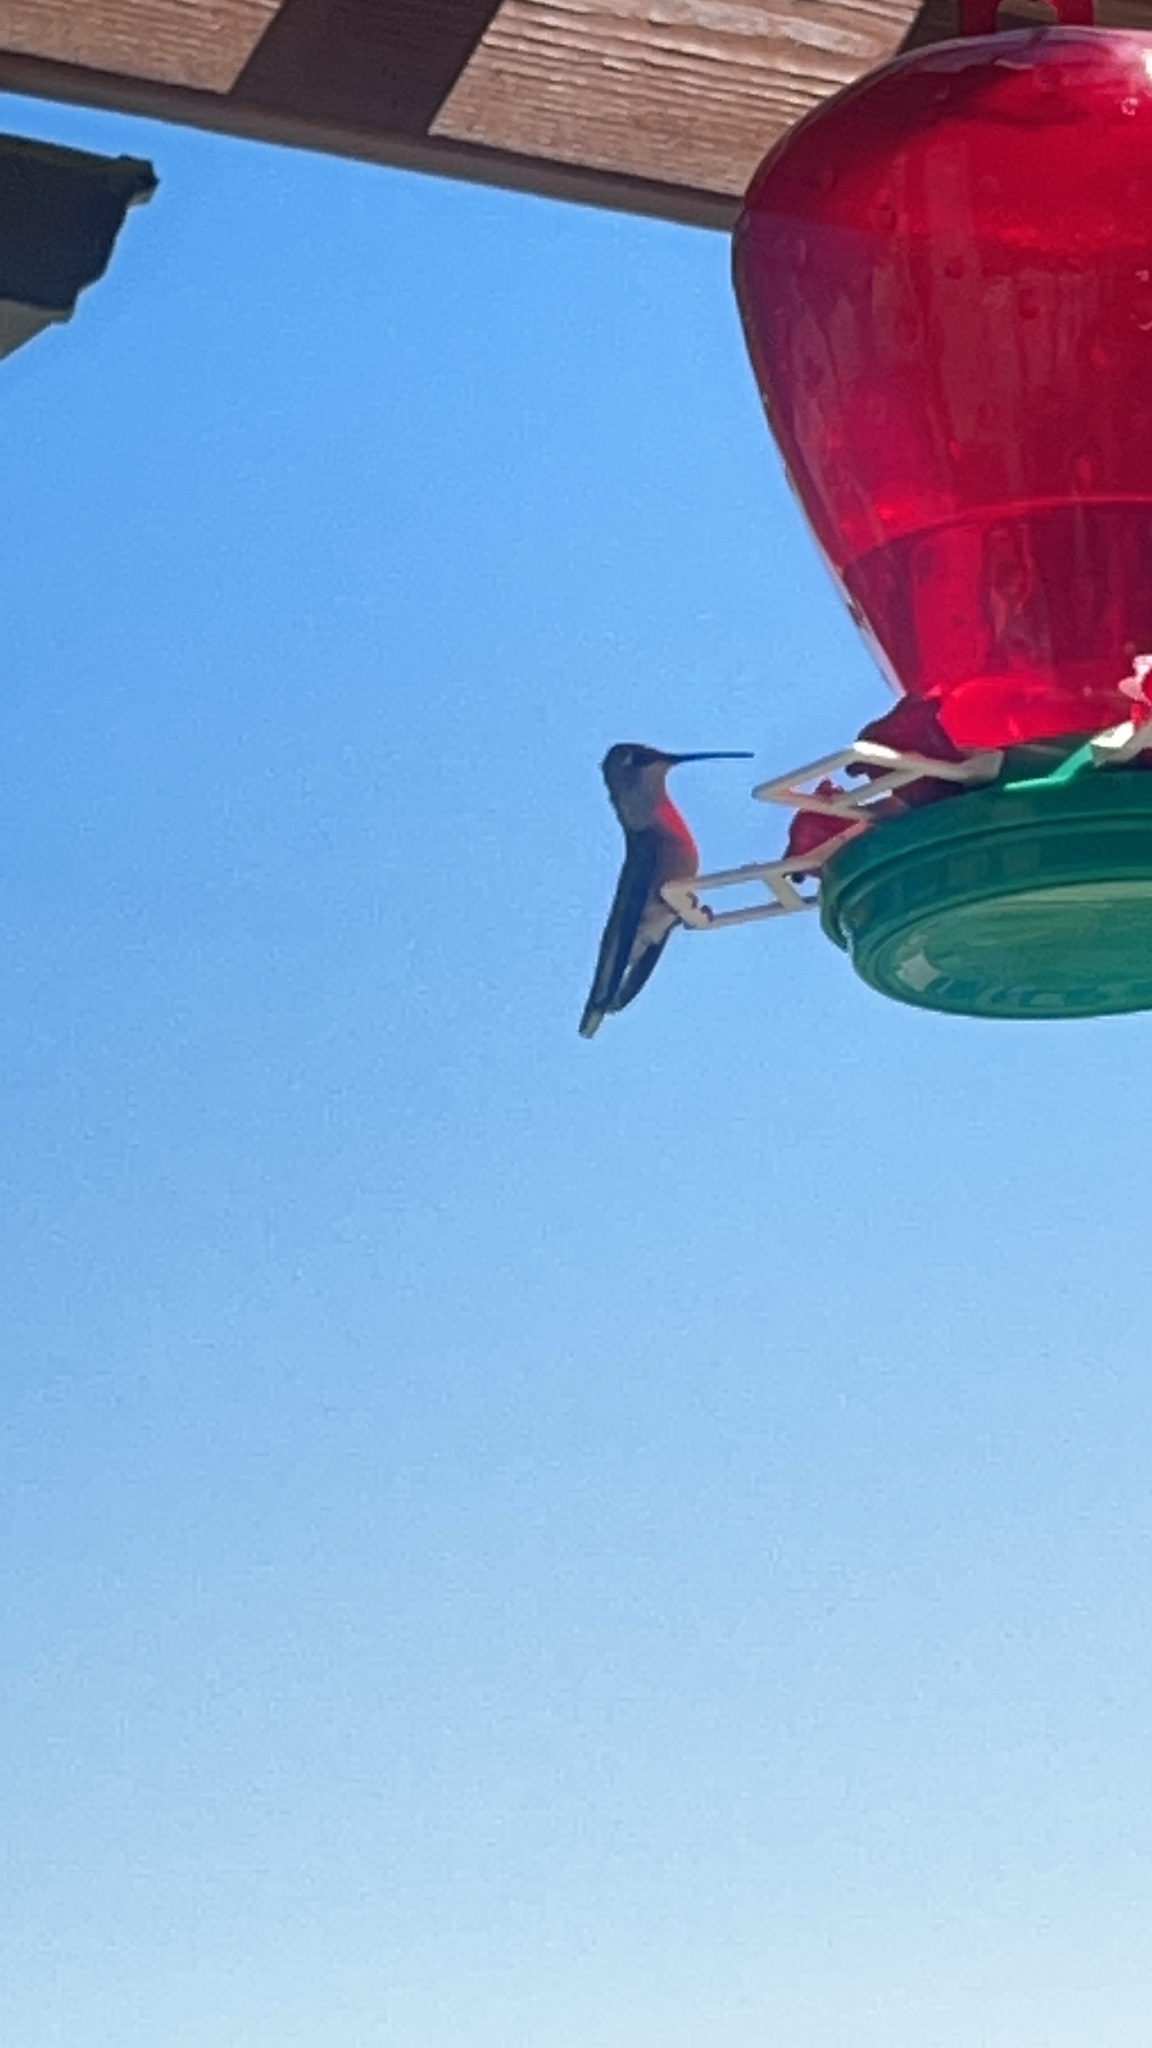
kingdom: Animalia
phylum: Chordata
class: Aves
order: Apodiformes
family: Trochilidae
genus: Archilochus
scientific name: Archilochus colubris
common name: Ruby-throated hummingbird
